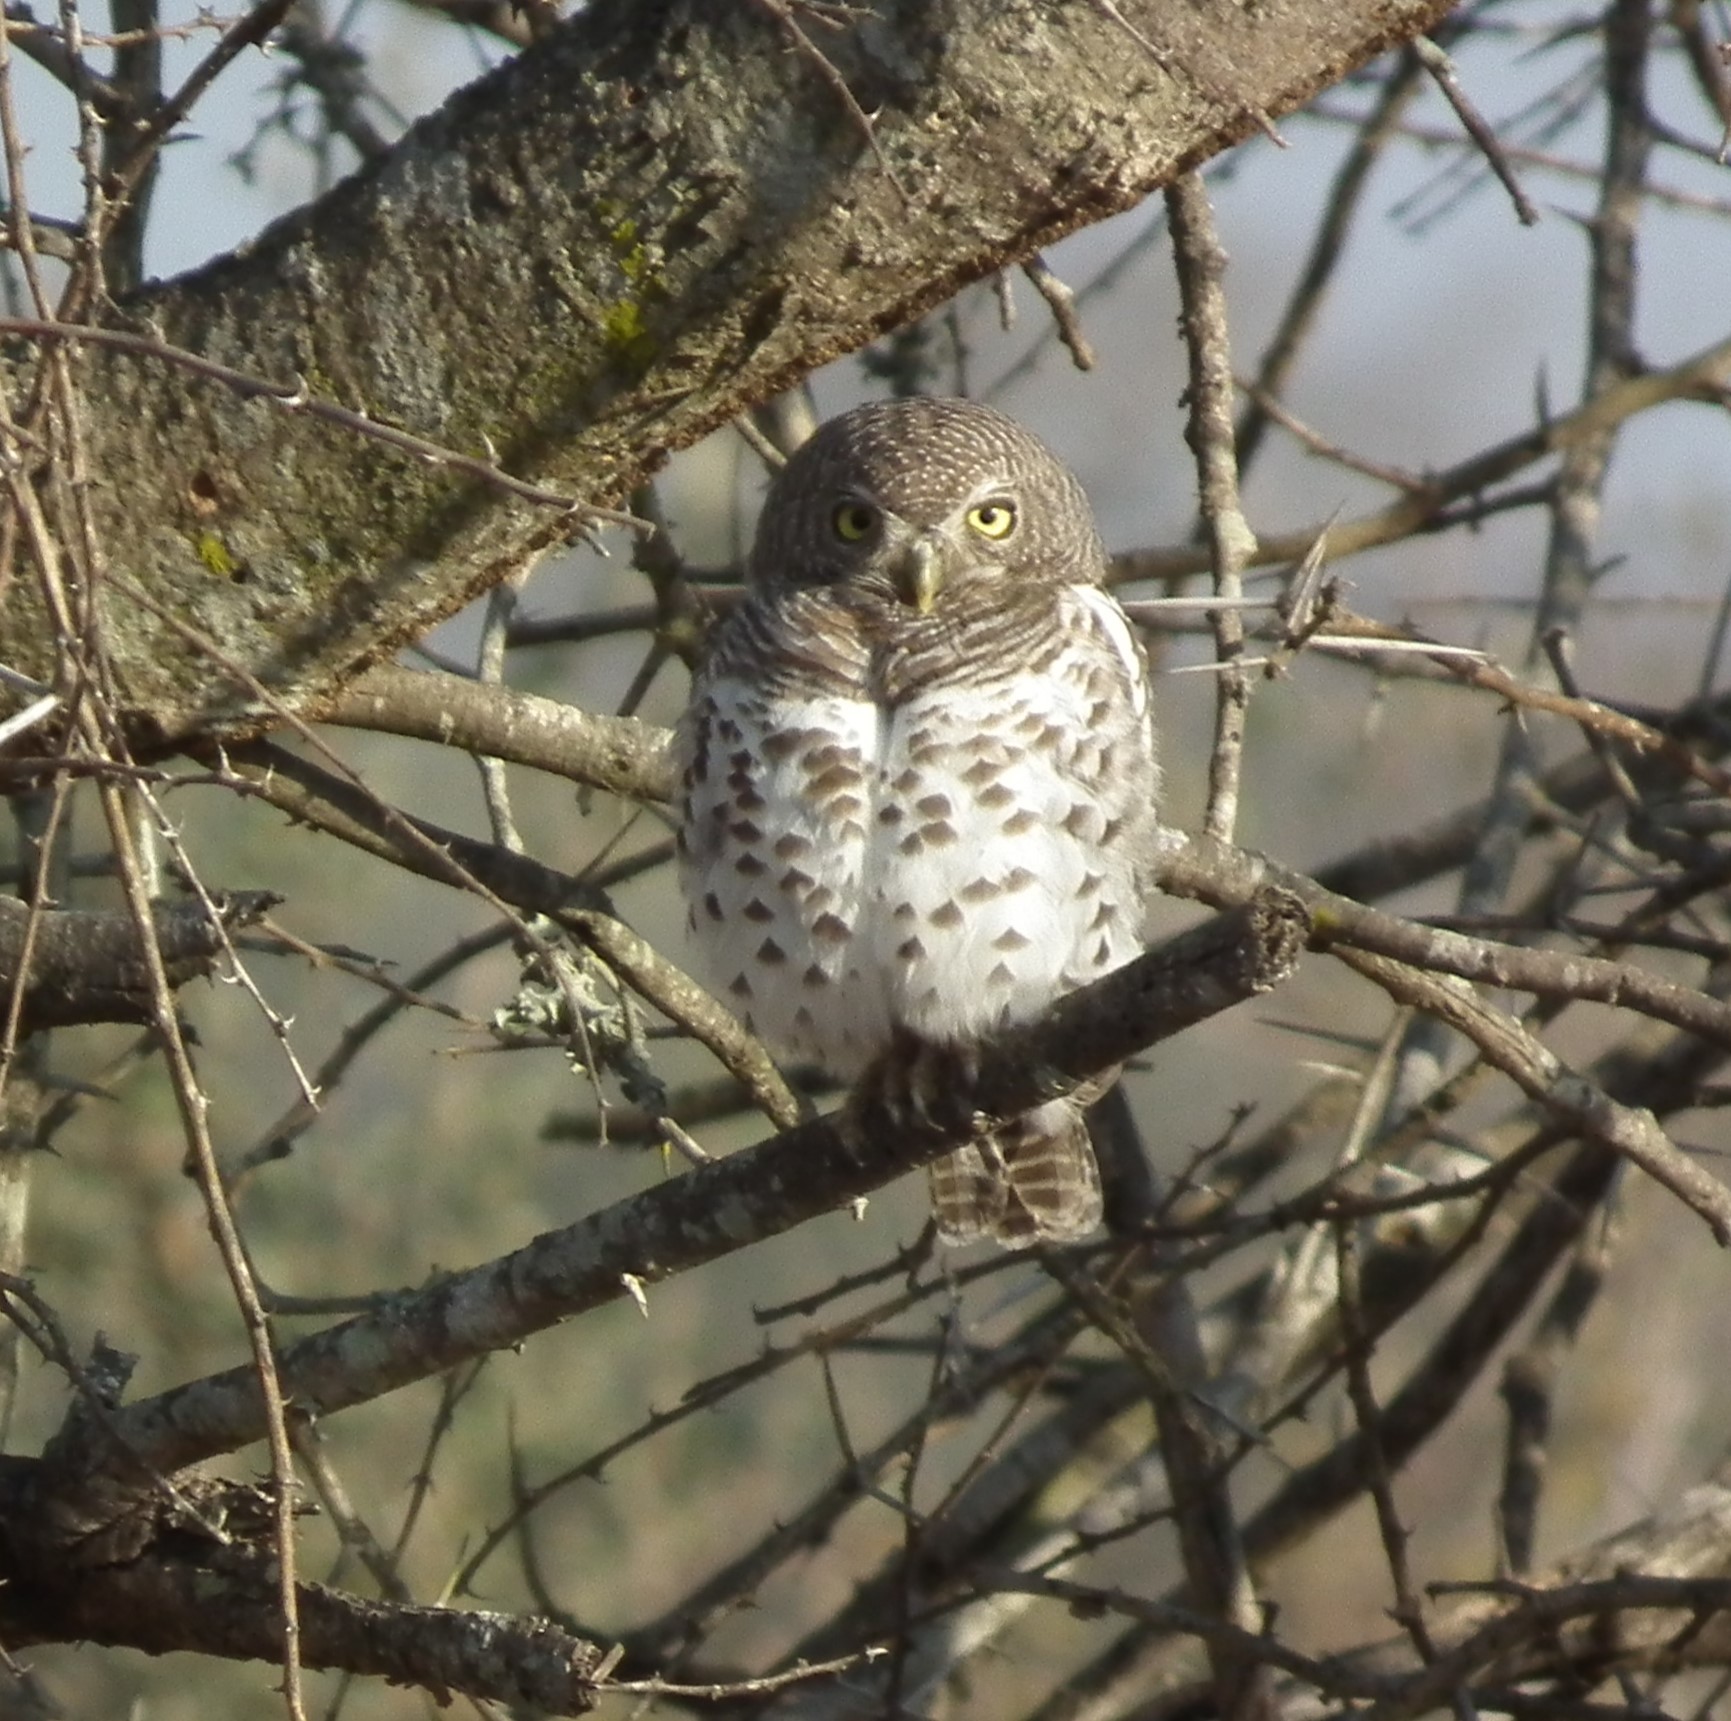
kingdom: Animalia
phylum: Chordata
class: Aves
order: Strigiformes
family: Strigidae
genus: Glaucidium
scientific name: Glaucidium capense
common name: African barred owlet
